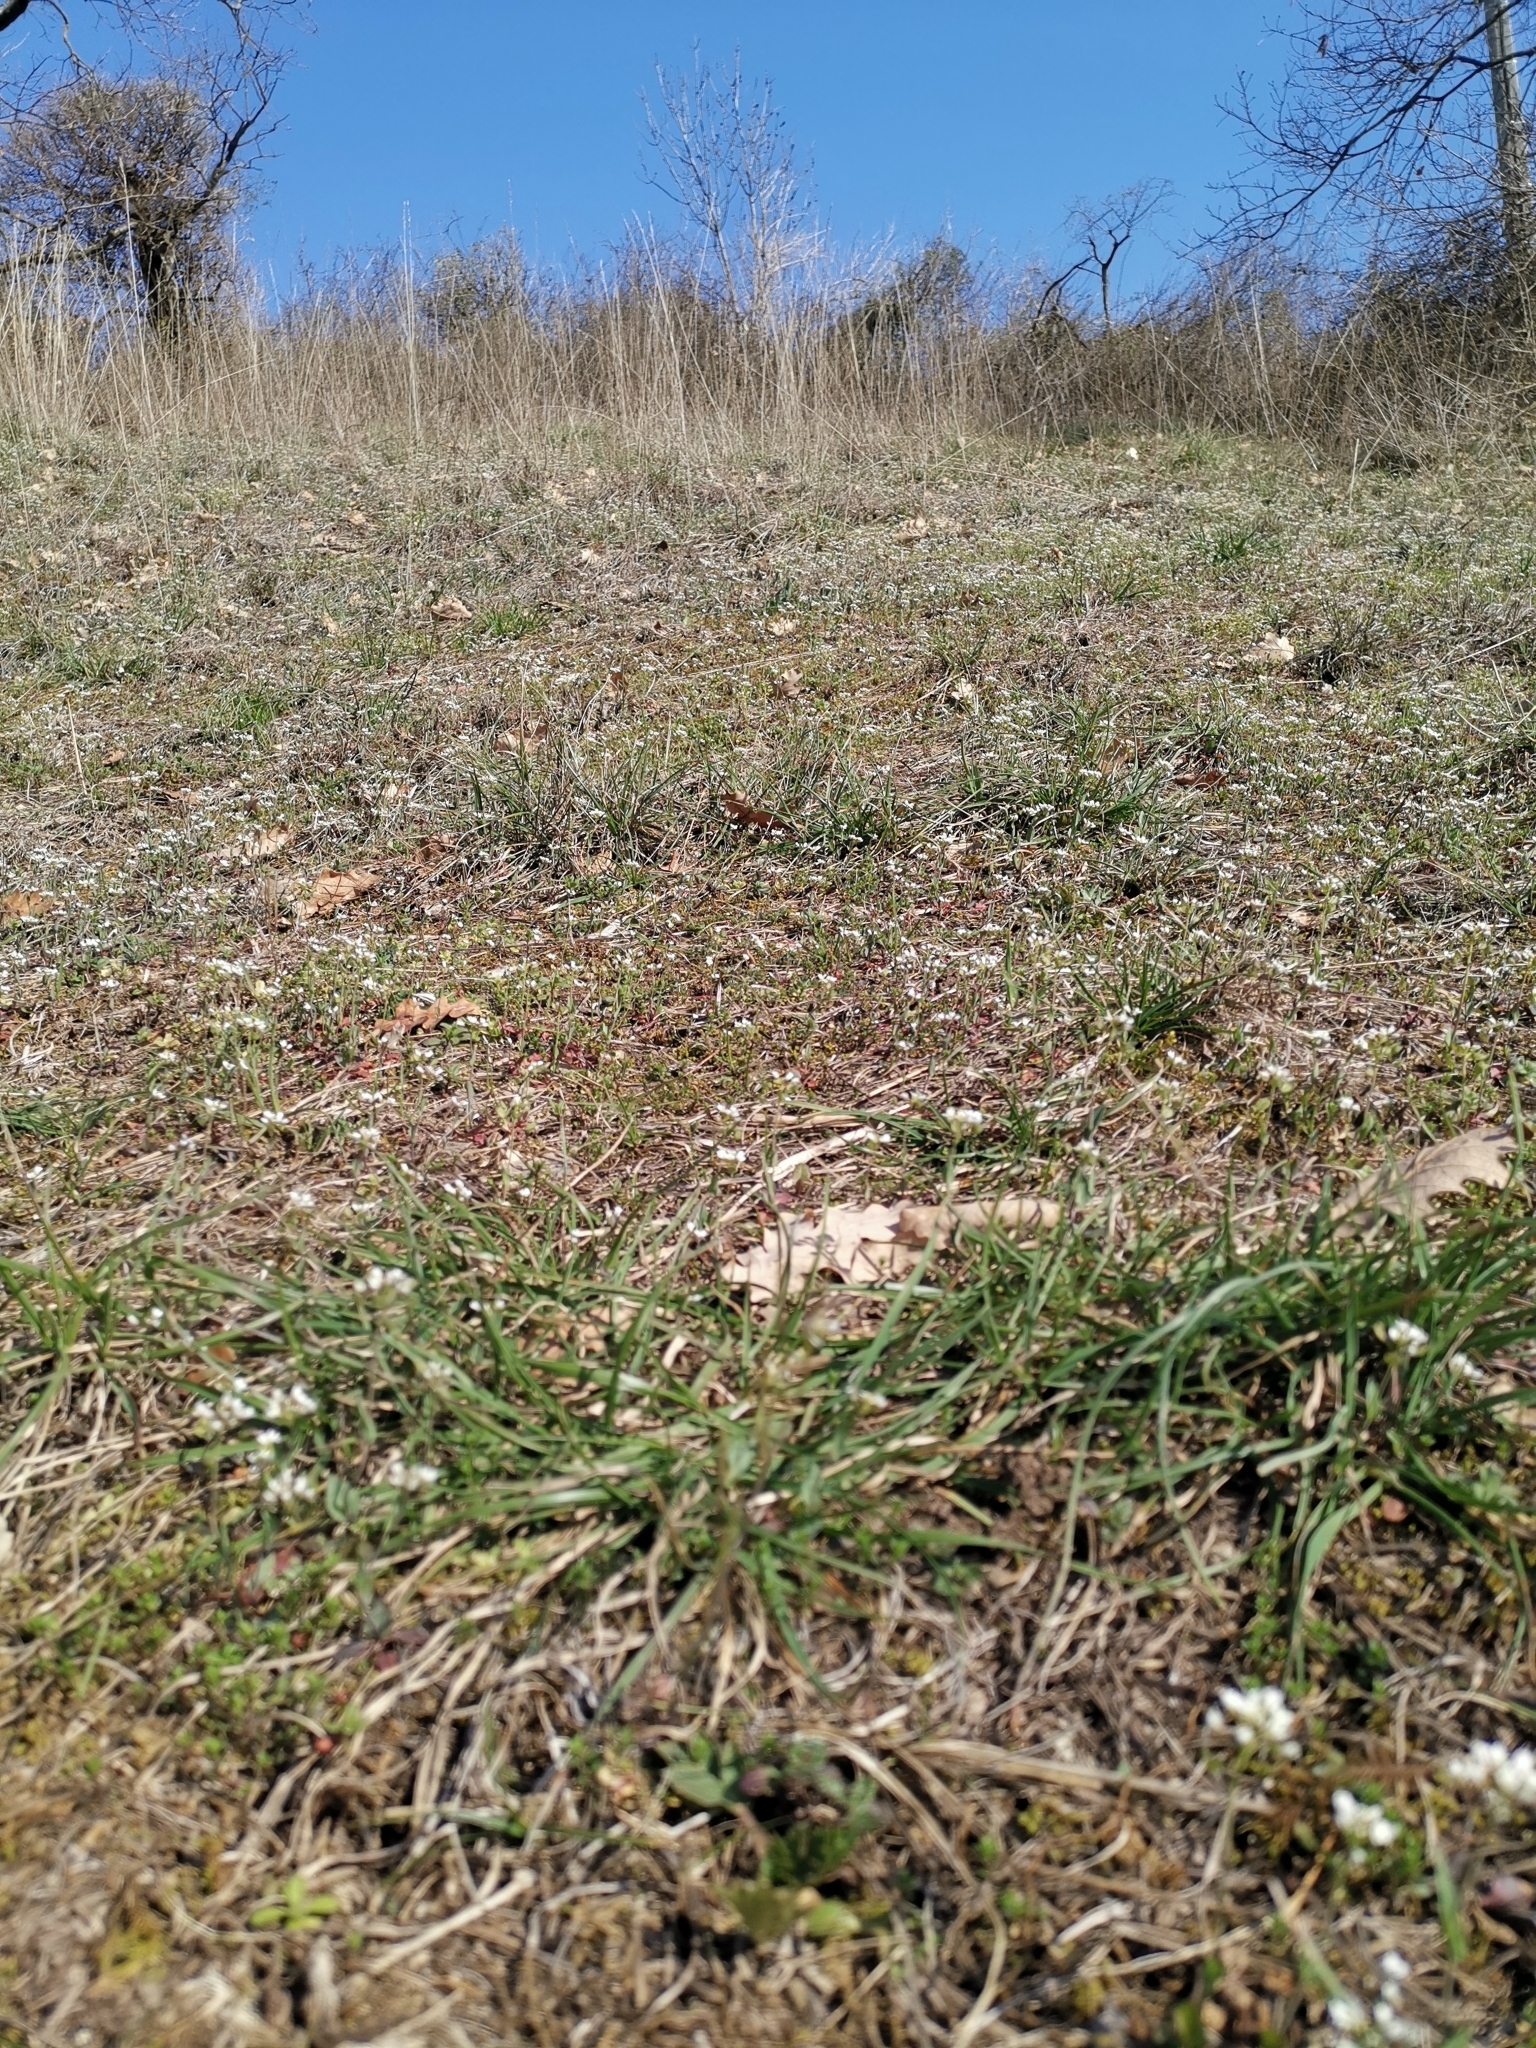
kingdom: Plantae
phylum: Tracheophyta
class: Magnoliopsida
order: Brassicales
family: Brassicaceae
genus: Noccaea
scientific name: Noccaea perfoliata
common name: Perfoliate pennycress
